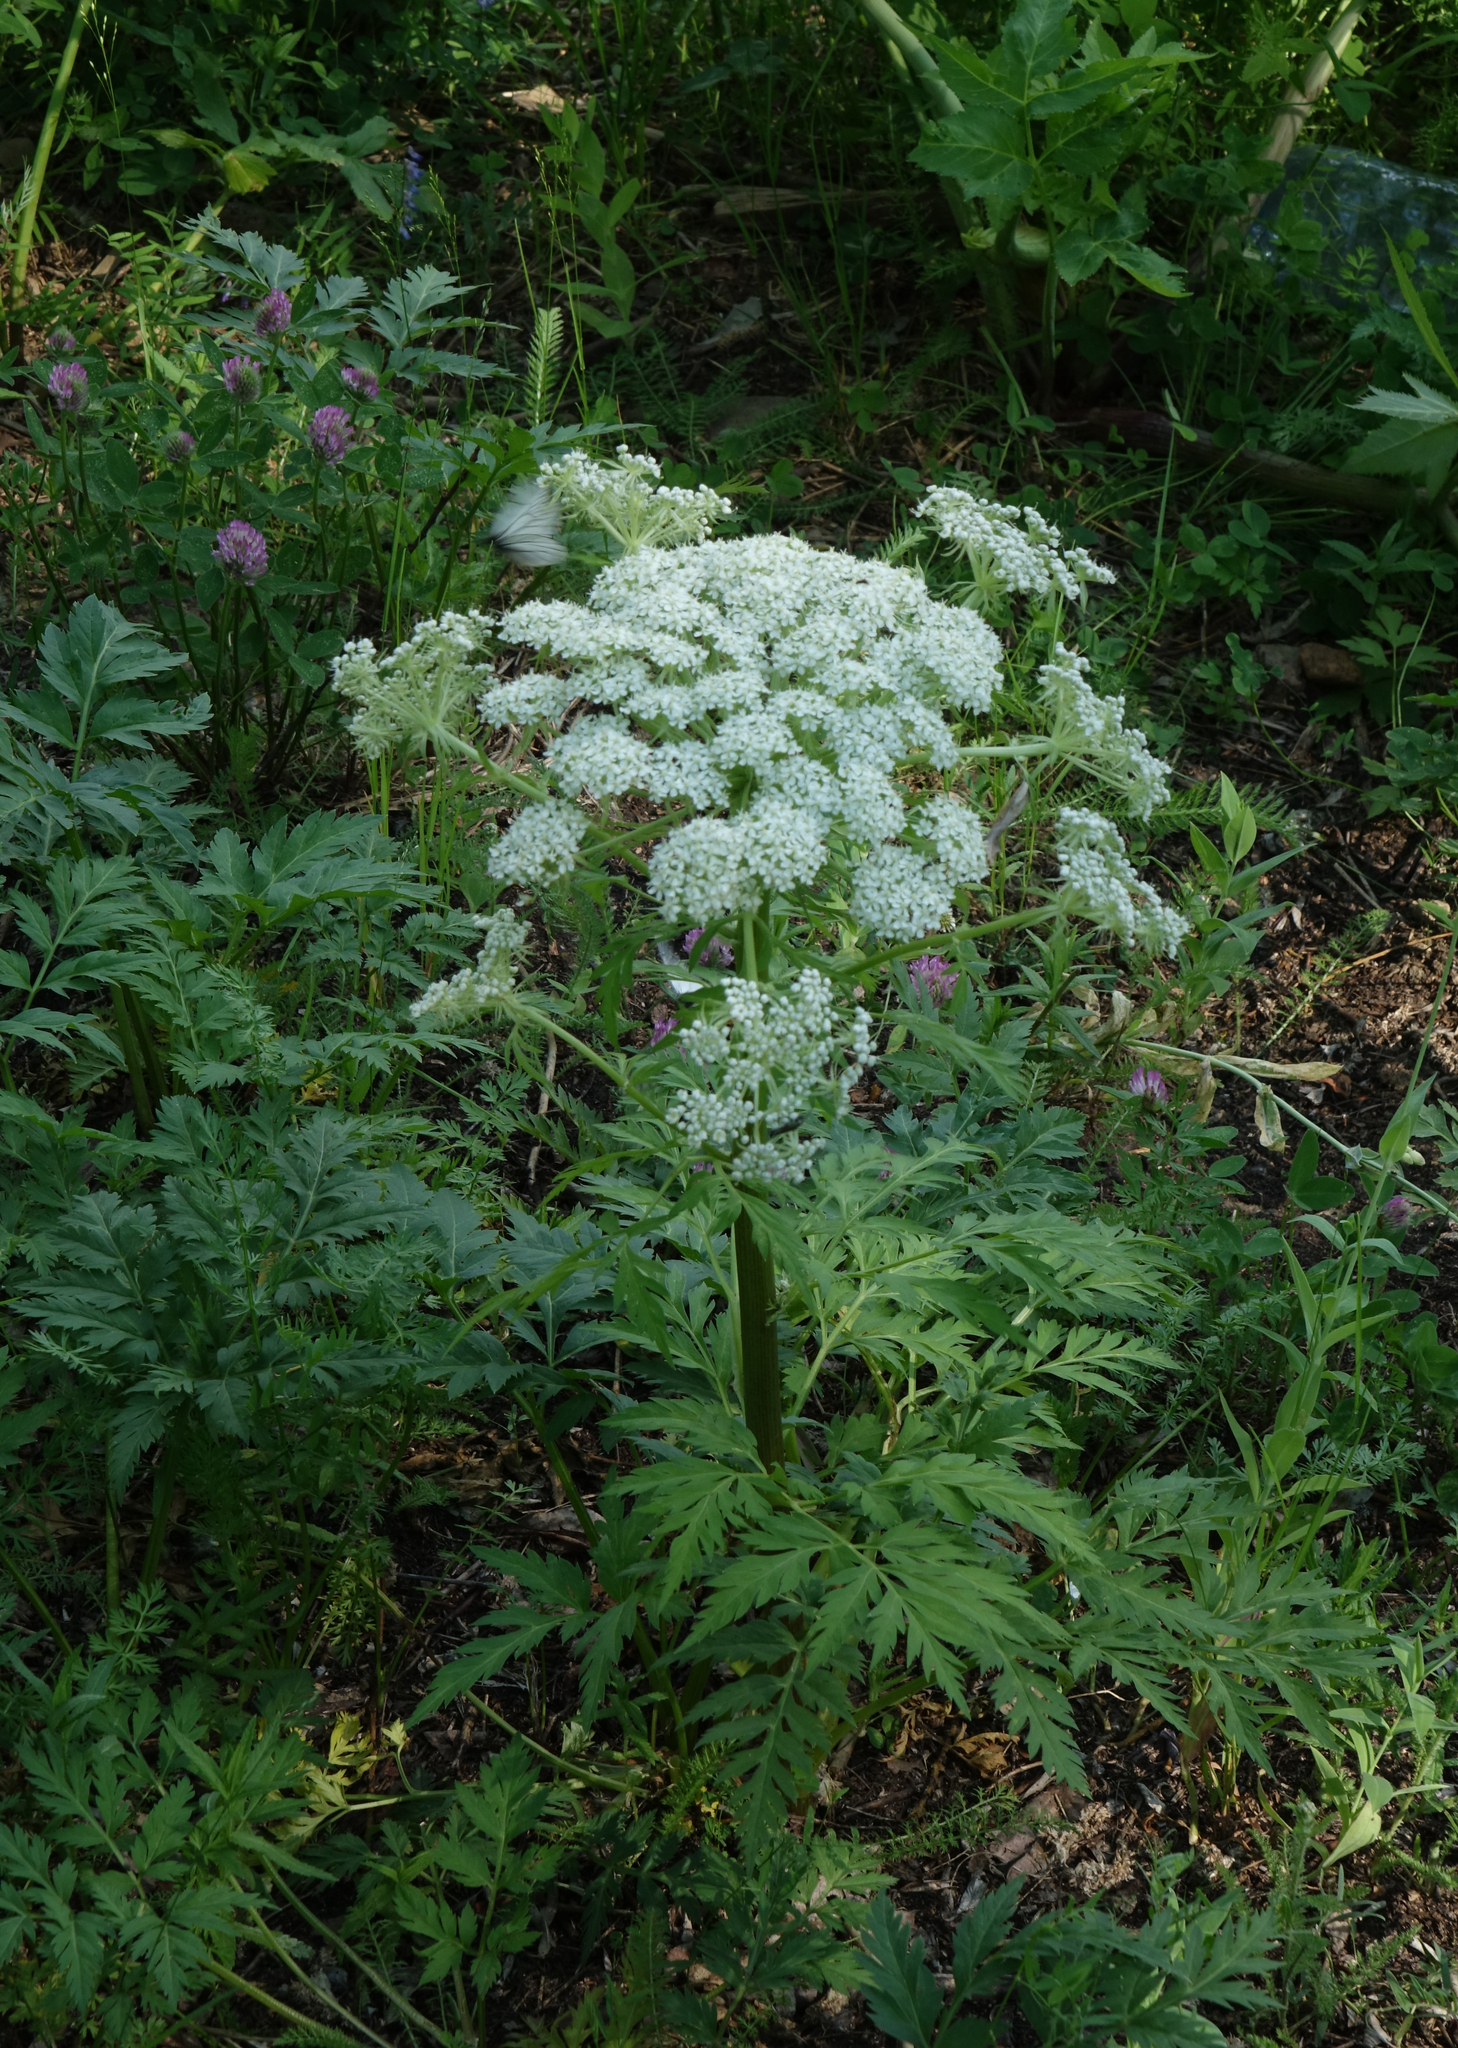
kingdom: Plantae
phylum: Tracheophyta
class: Magnoliopsida
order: Apiales
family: Apiaceae
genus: Pleurospermum
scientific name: Pleurospermum uralense
